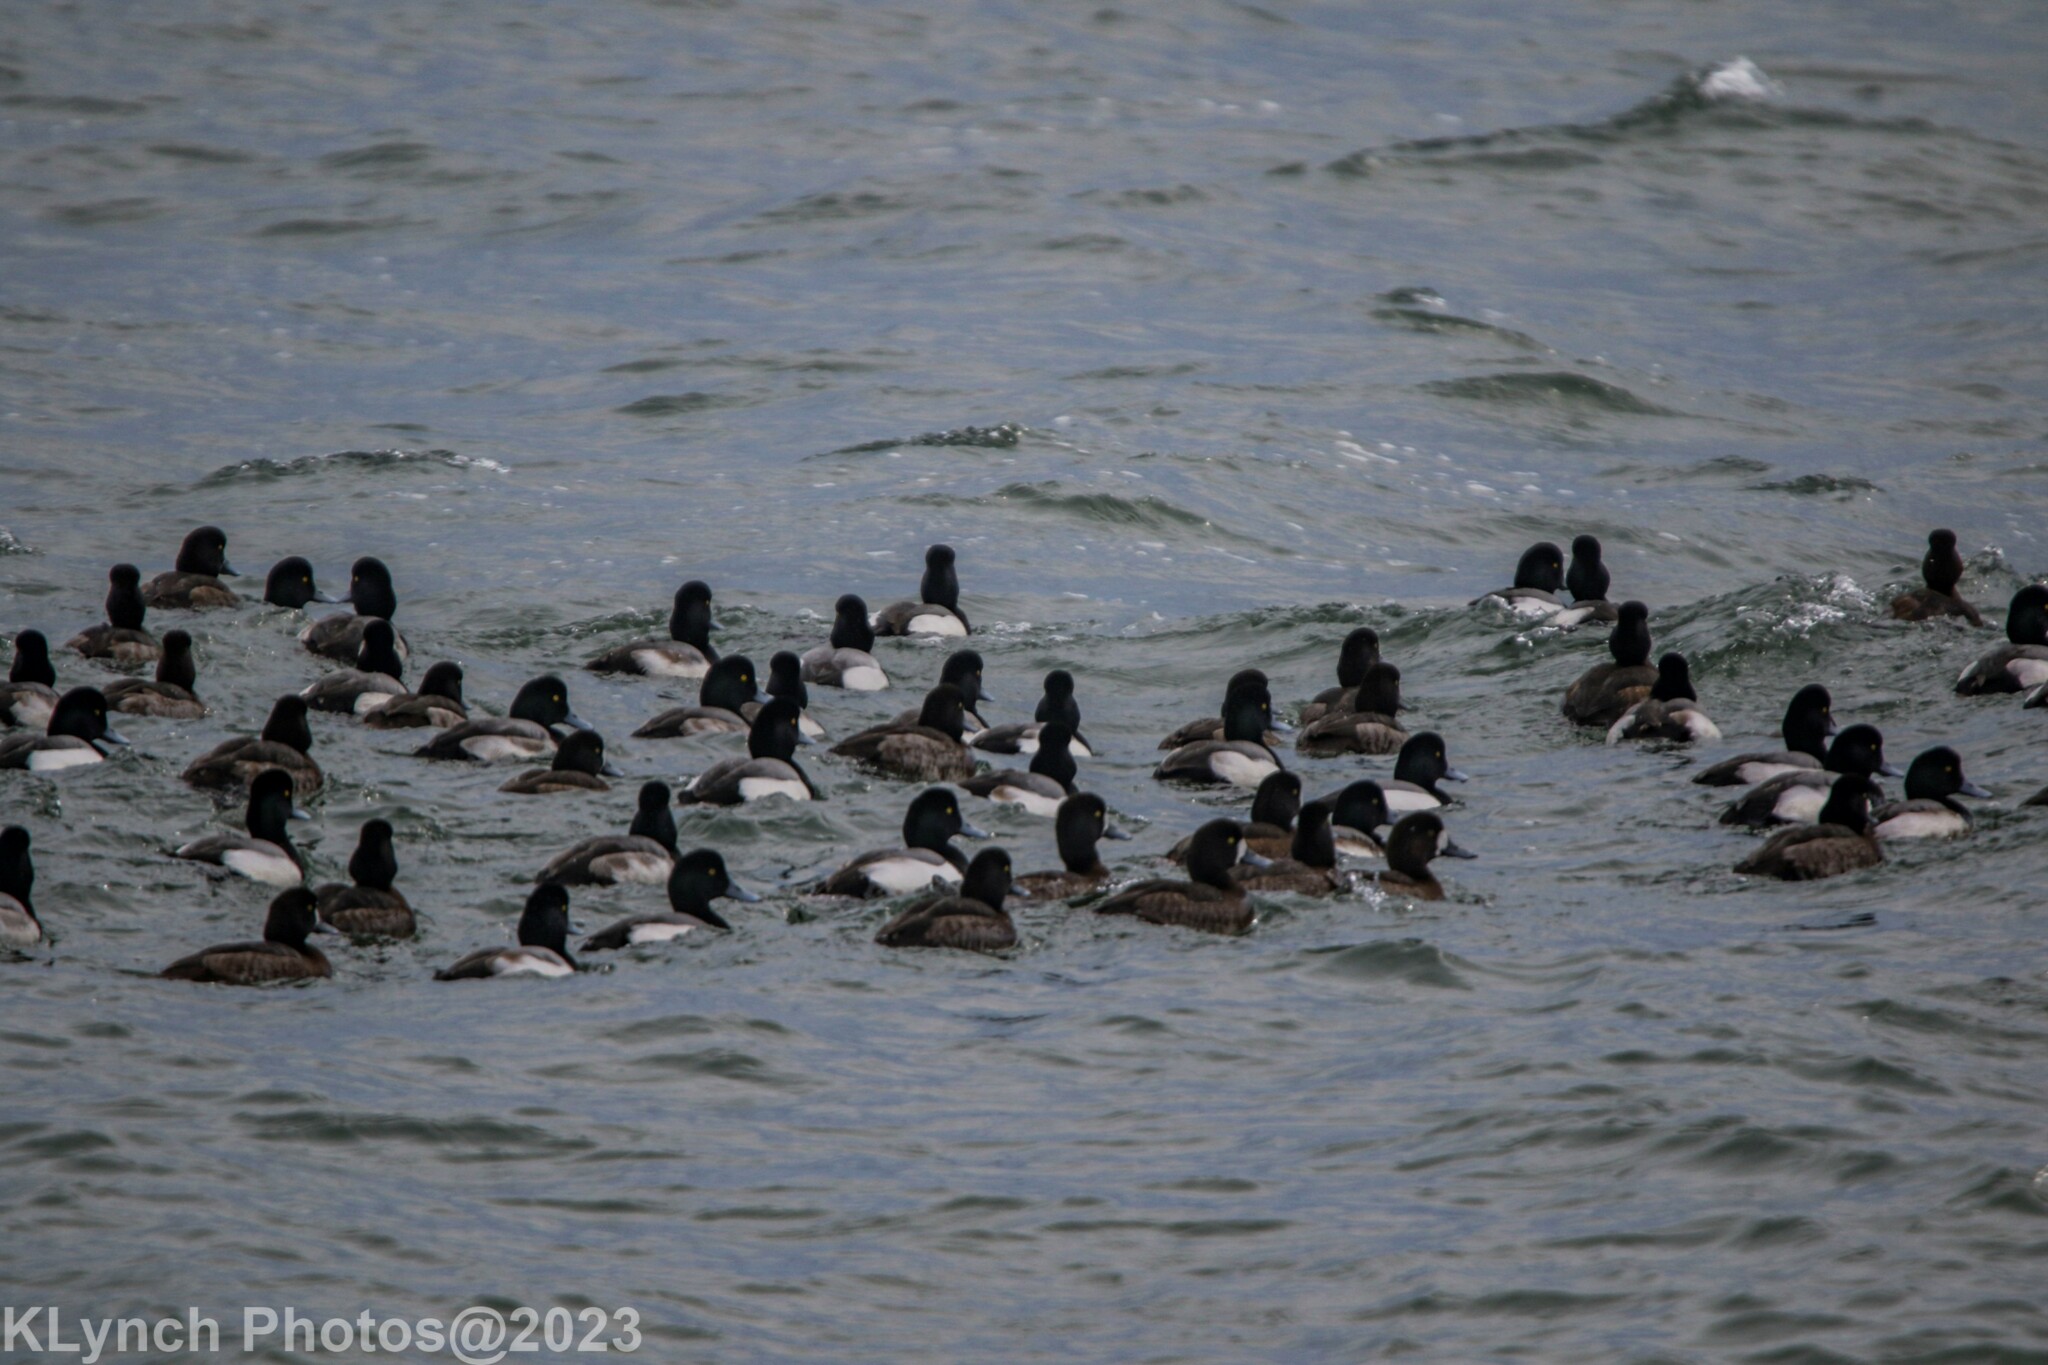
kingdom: Animalia
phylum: Chordata
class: Aves
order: Anseriformes
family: Anatidae
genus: Aythya
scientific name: Aythya marila
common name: Greater scaup
